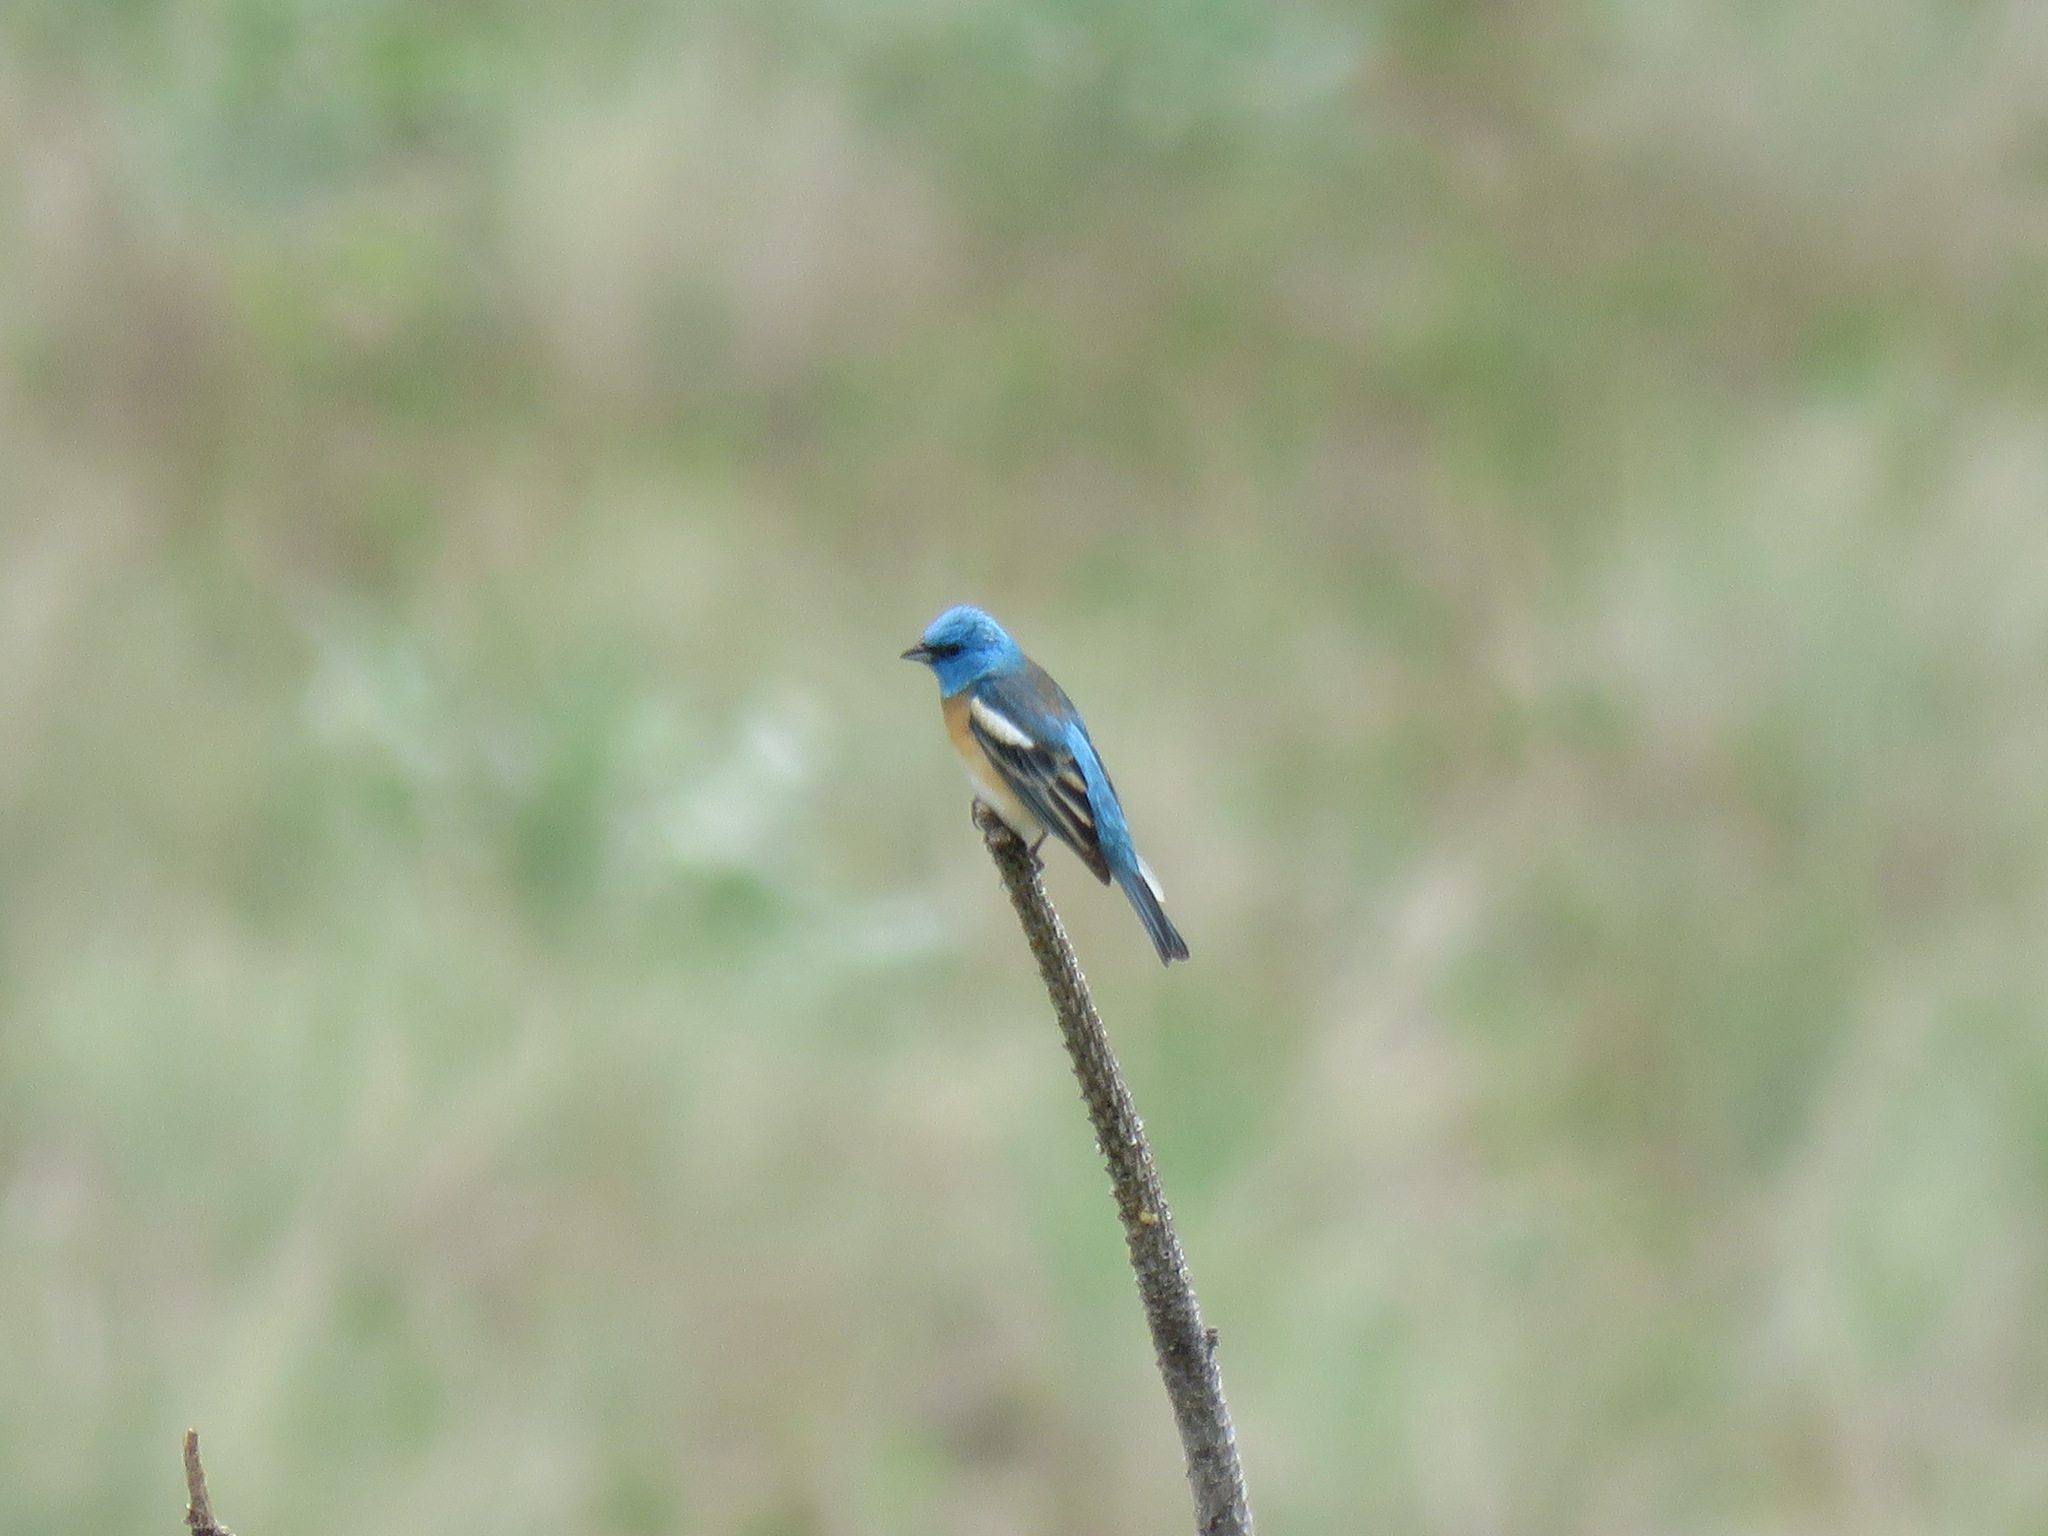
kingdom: Animalia
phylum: Chordata
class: Aves
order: Passeriformes
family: Cardinalidae
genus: Passerina
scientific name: Passerina amoena
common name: Lazuli bunting
